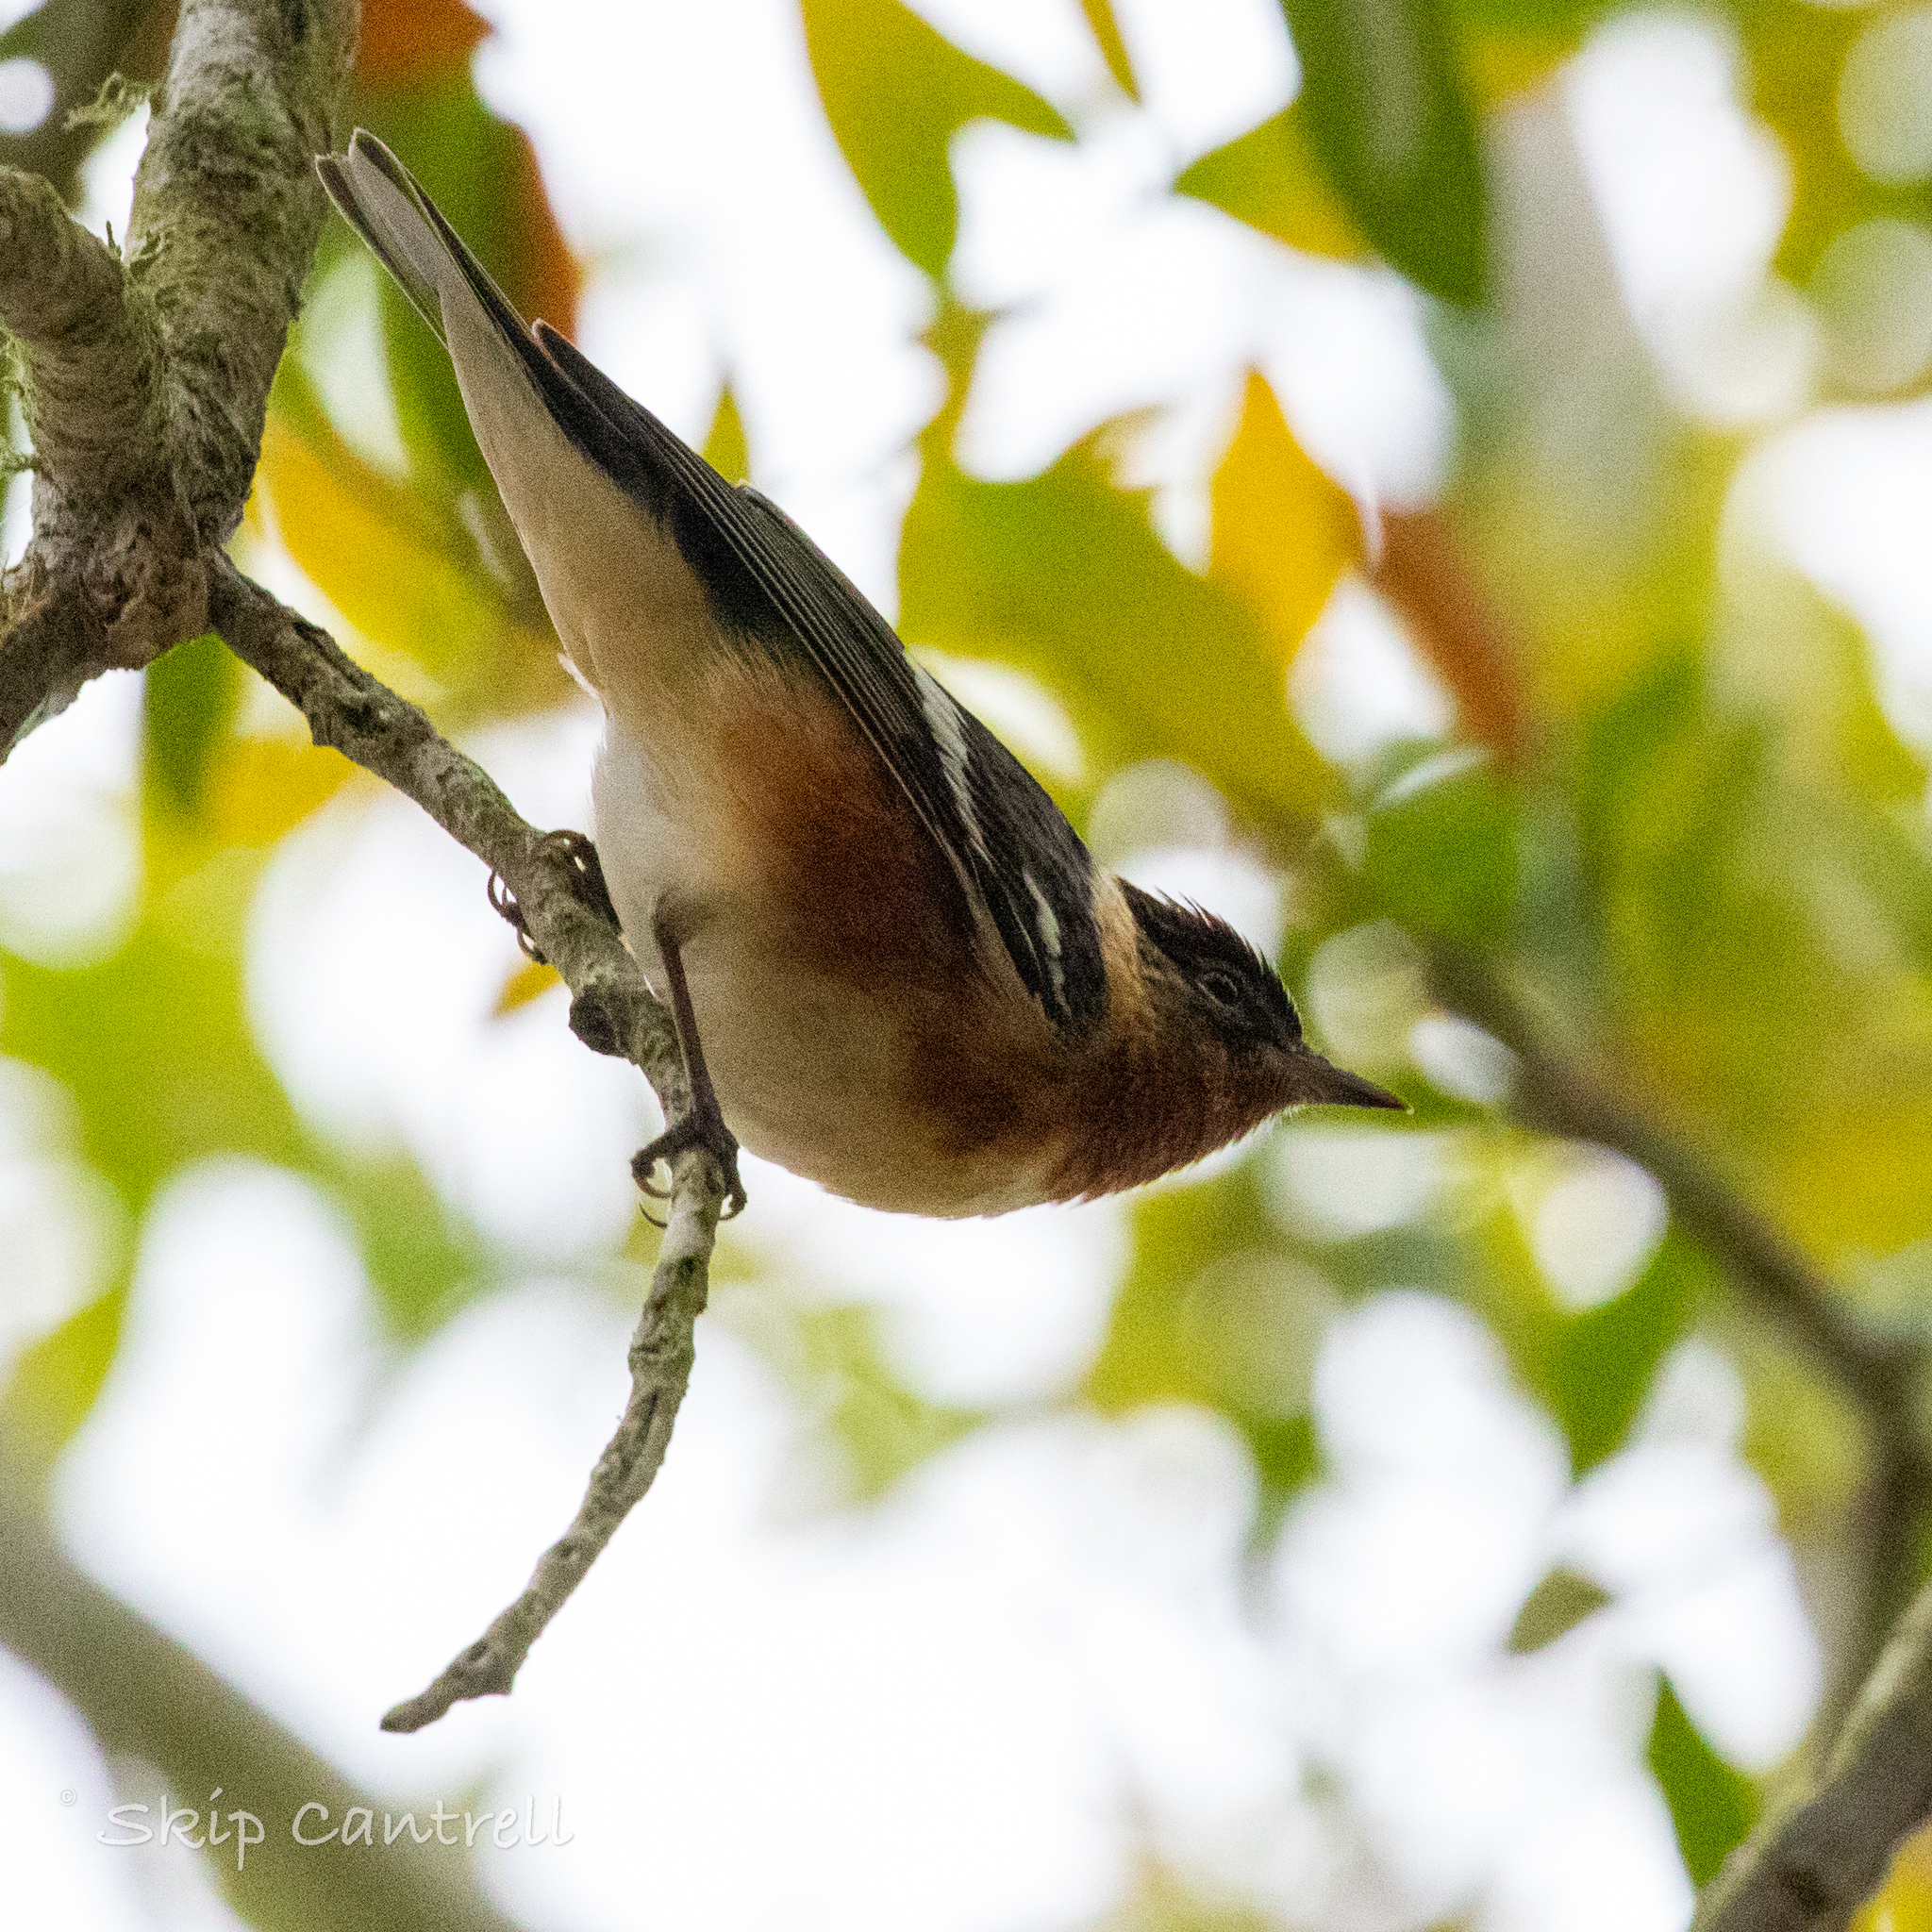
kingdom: Animalia
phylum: Chordata
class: Aves
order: Passeriformes
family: Parulidae
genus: Setophaga
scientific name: Setophaga castanea
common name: Bay-breasted warbler
